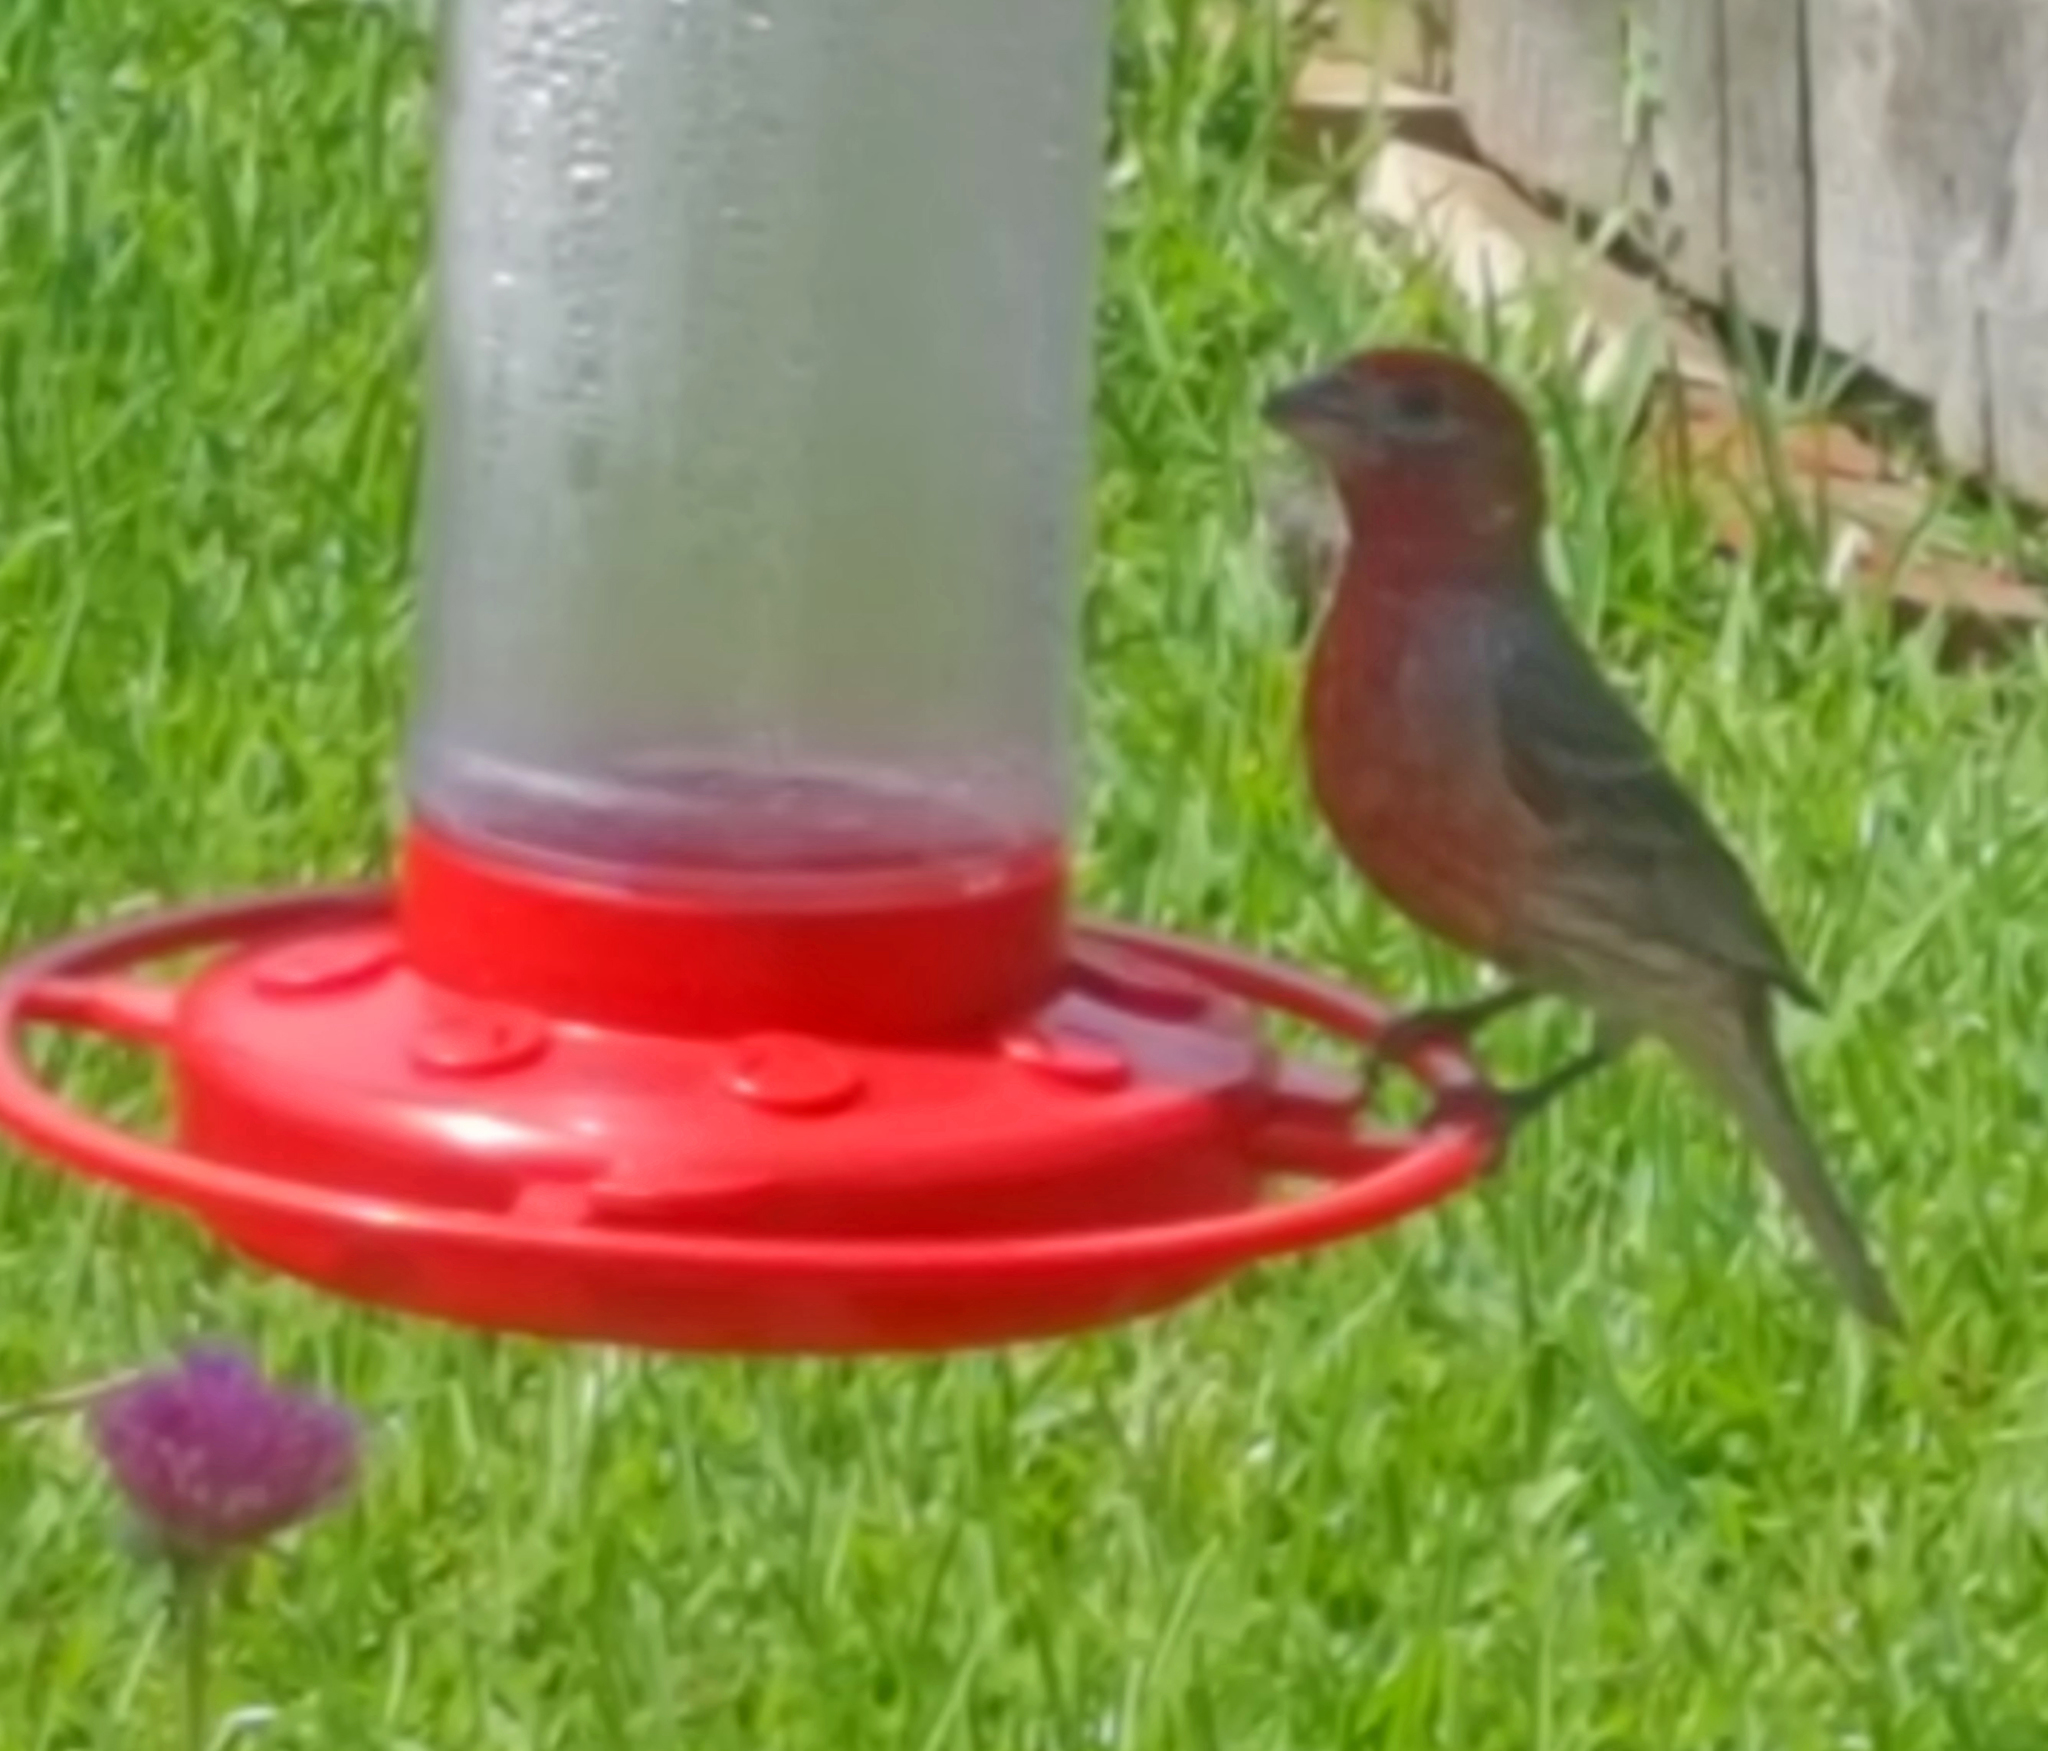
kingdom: Animalia
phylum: Chordata
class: Aves
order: Passeriformes
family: Fringillidae
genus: Haemorhous
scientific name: Haemorhous mexicanus
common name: House finch
